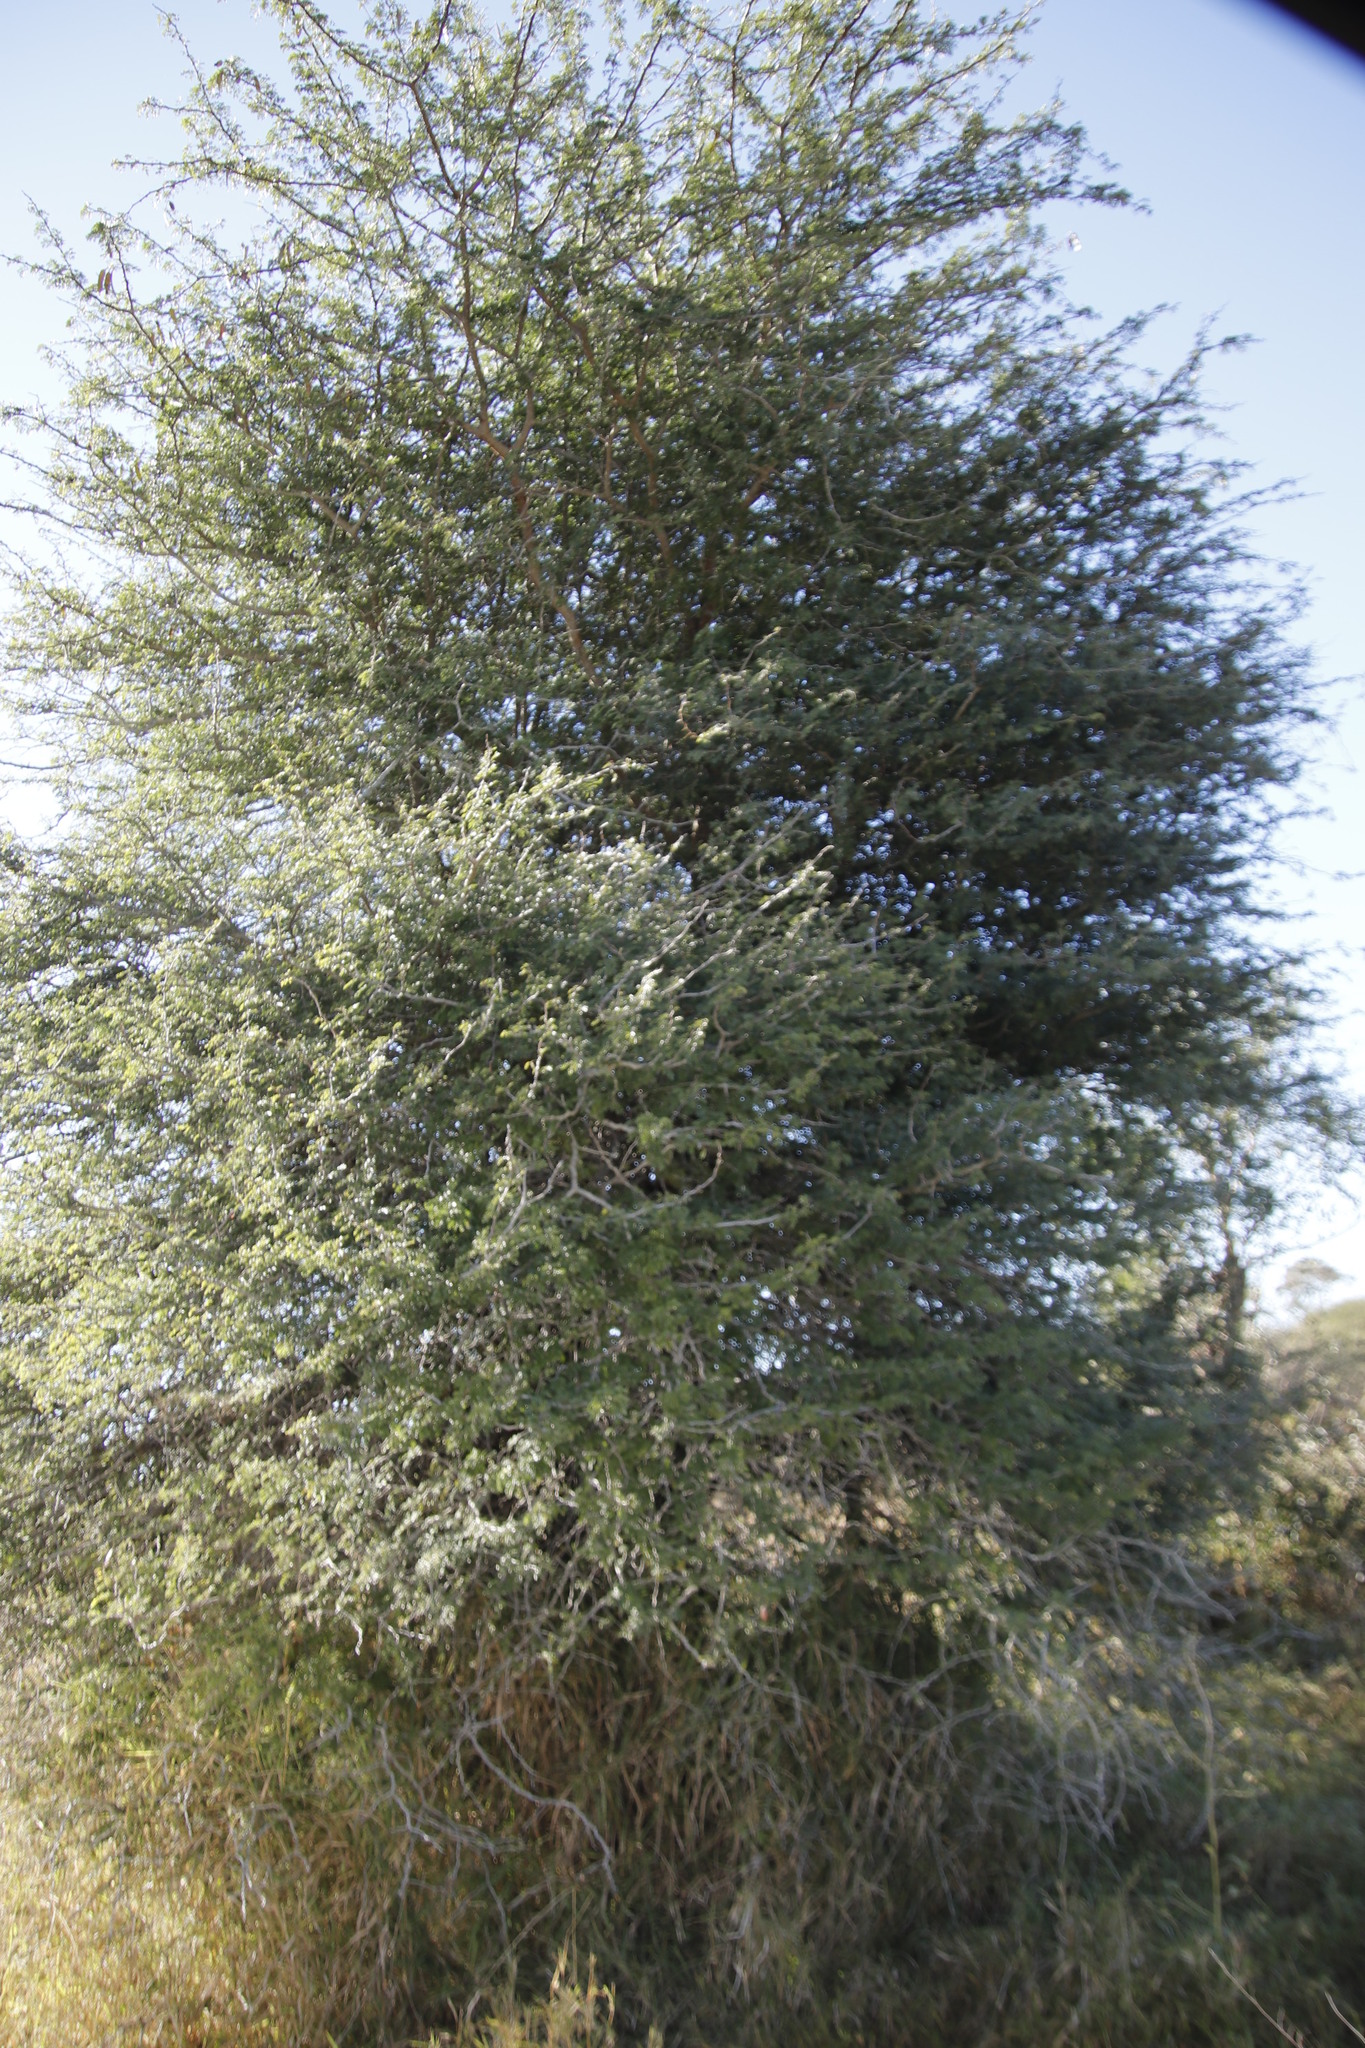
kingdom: Plantae
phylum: Tracheophyta
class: Magnoliopsida
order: Fabales
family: Fabaceae
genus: Senegalia
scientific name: Senegalia burkei
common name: Black monkey thorn
